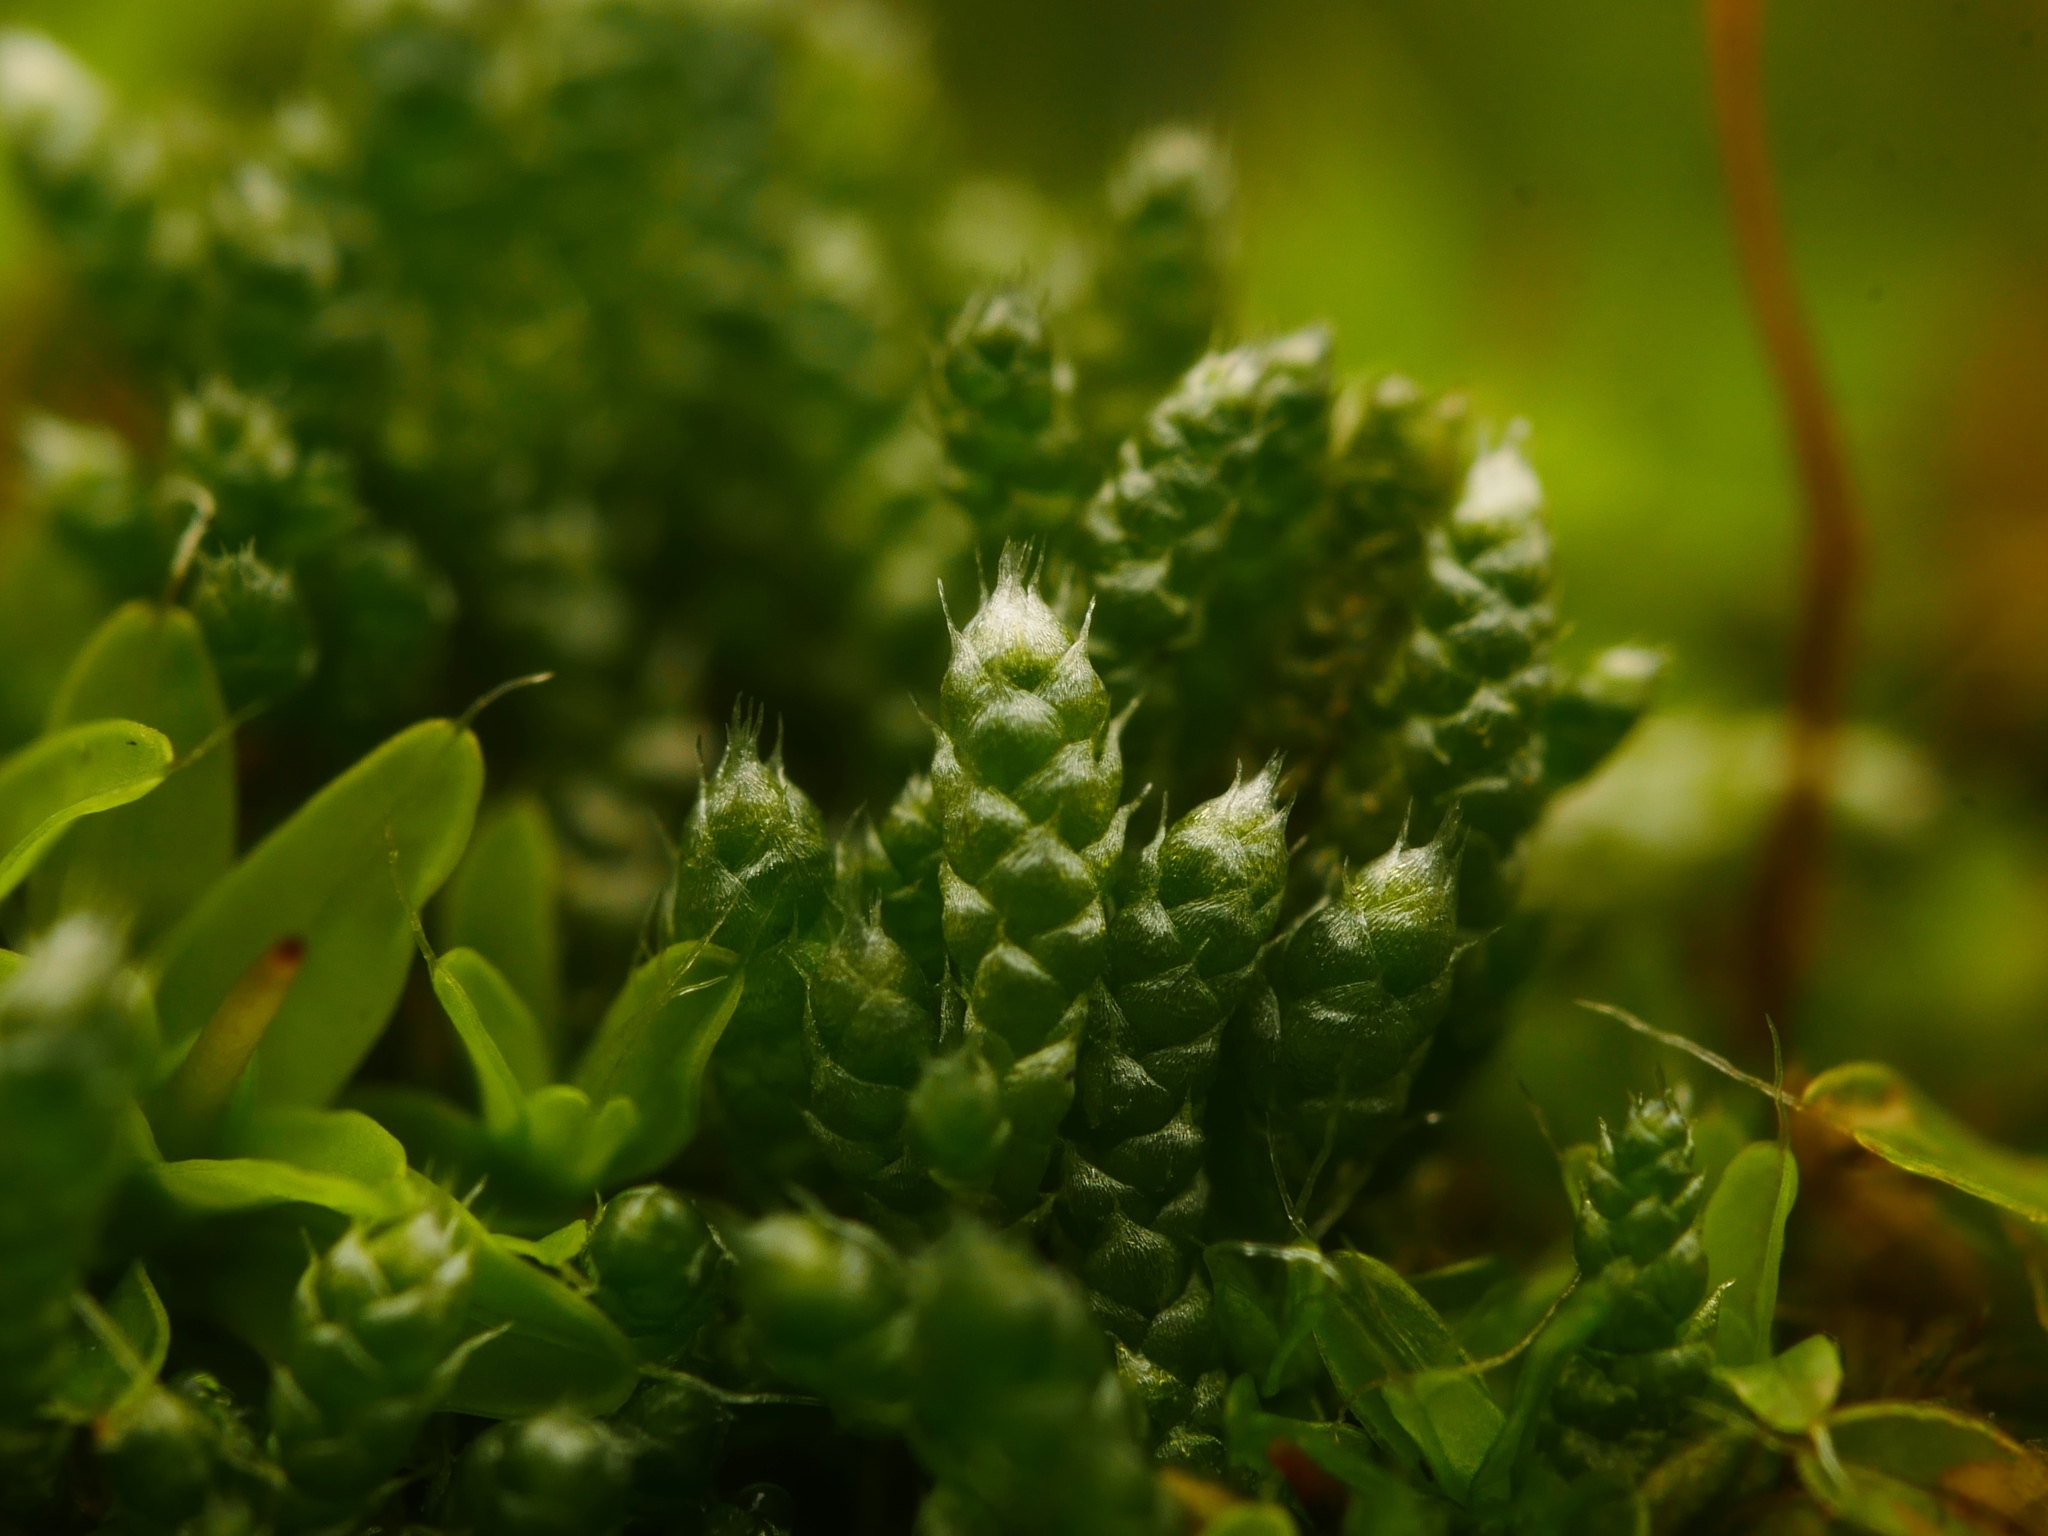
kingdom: Plantae
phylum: Bryophyta
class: Bryopsida
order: Bryales
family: Bryaceae
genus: Bryum
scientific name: Bryum argenteum
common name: Silver-moss
